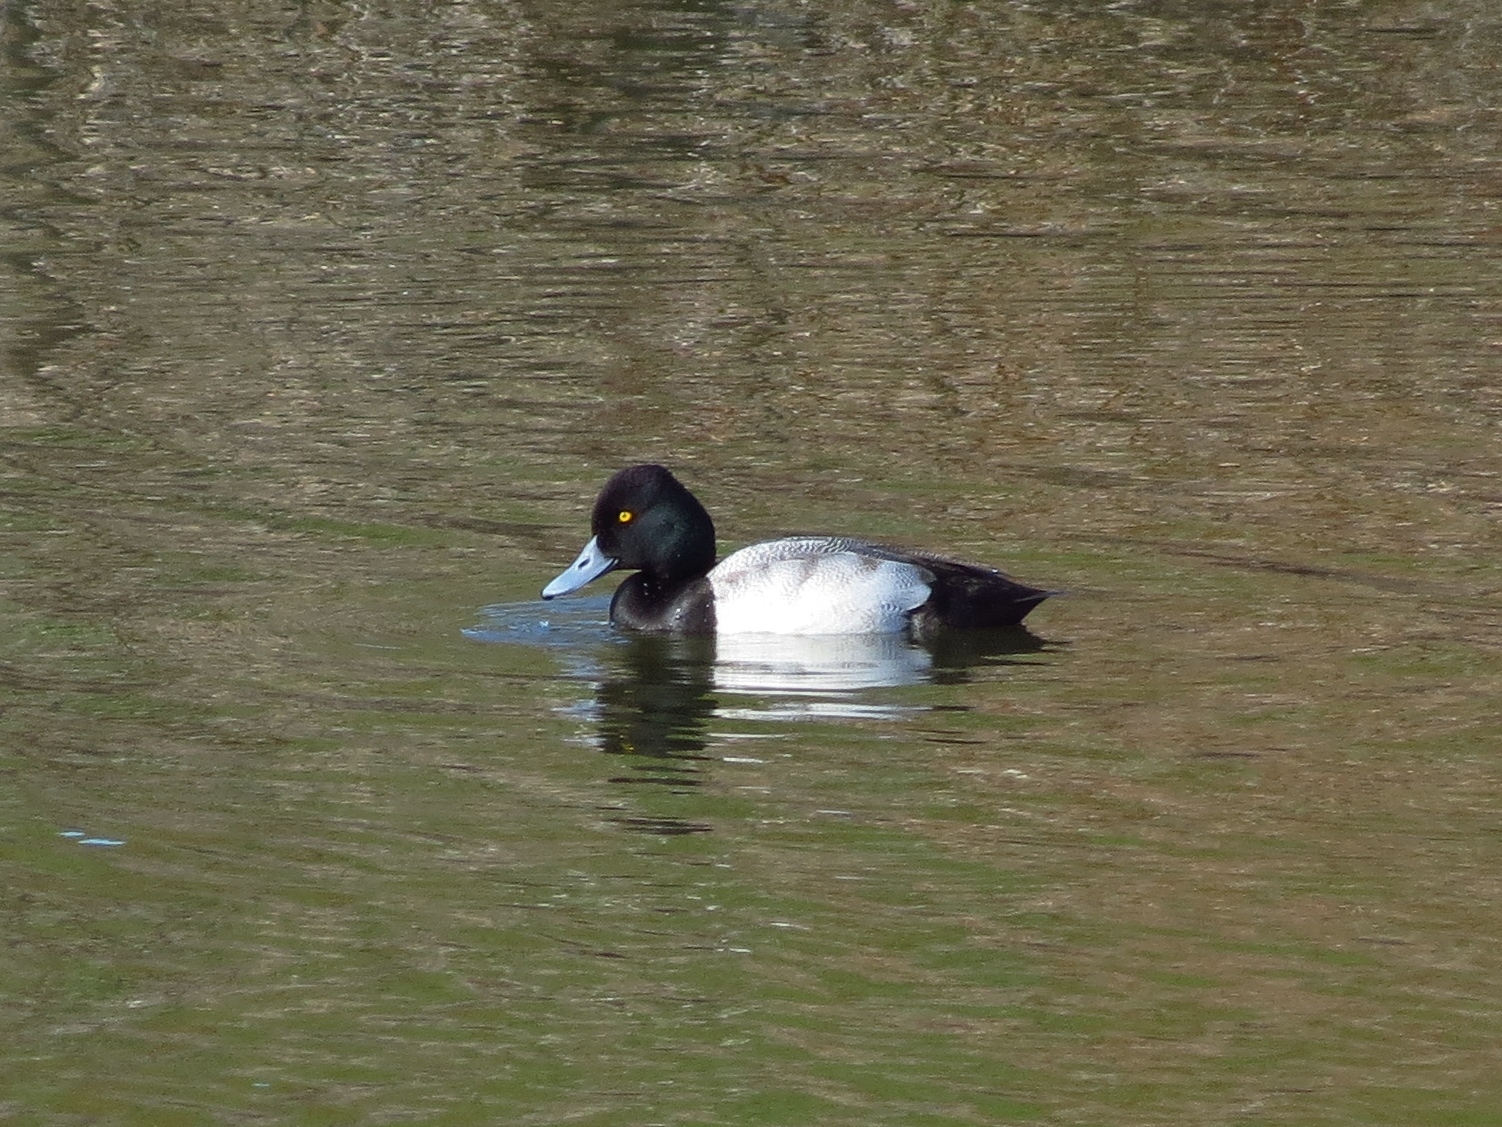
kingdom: Animalia
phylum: Chordata
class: Aves
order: Anseriformes
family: Anatidae
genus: Aythya
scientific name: Aythya affinis
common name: Lesser scaup
